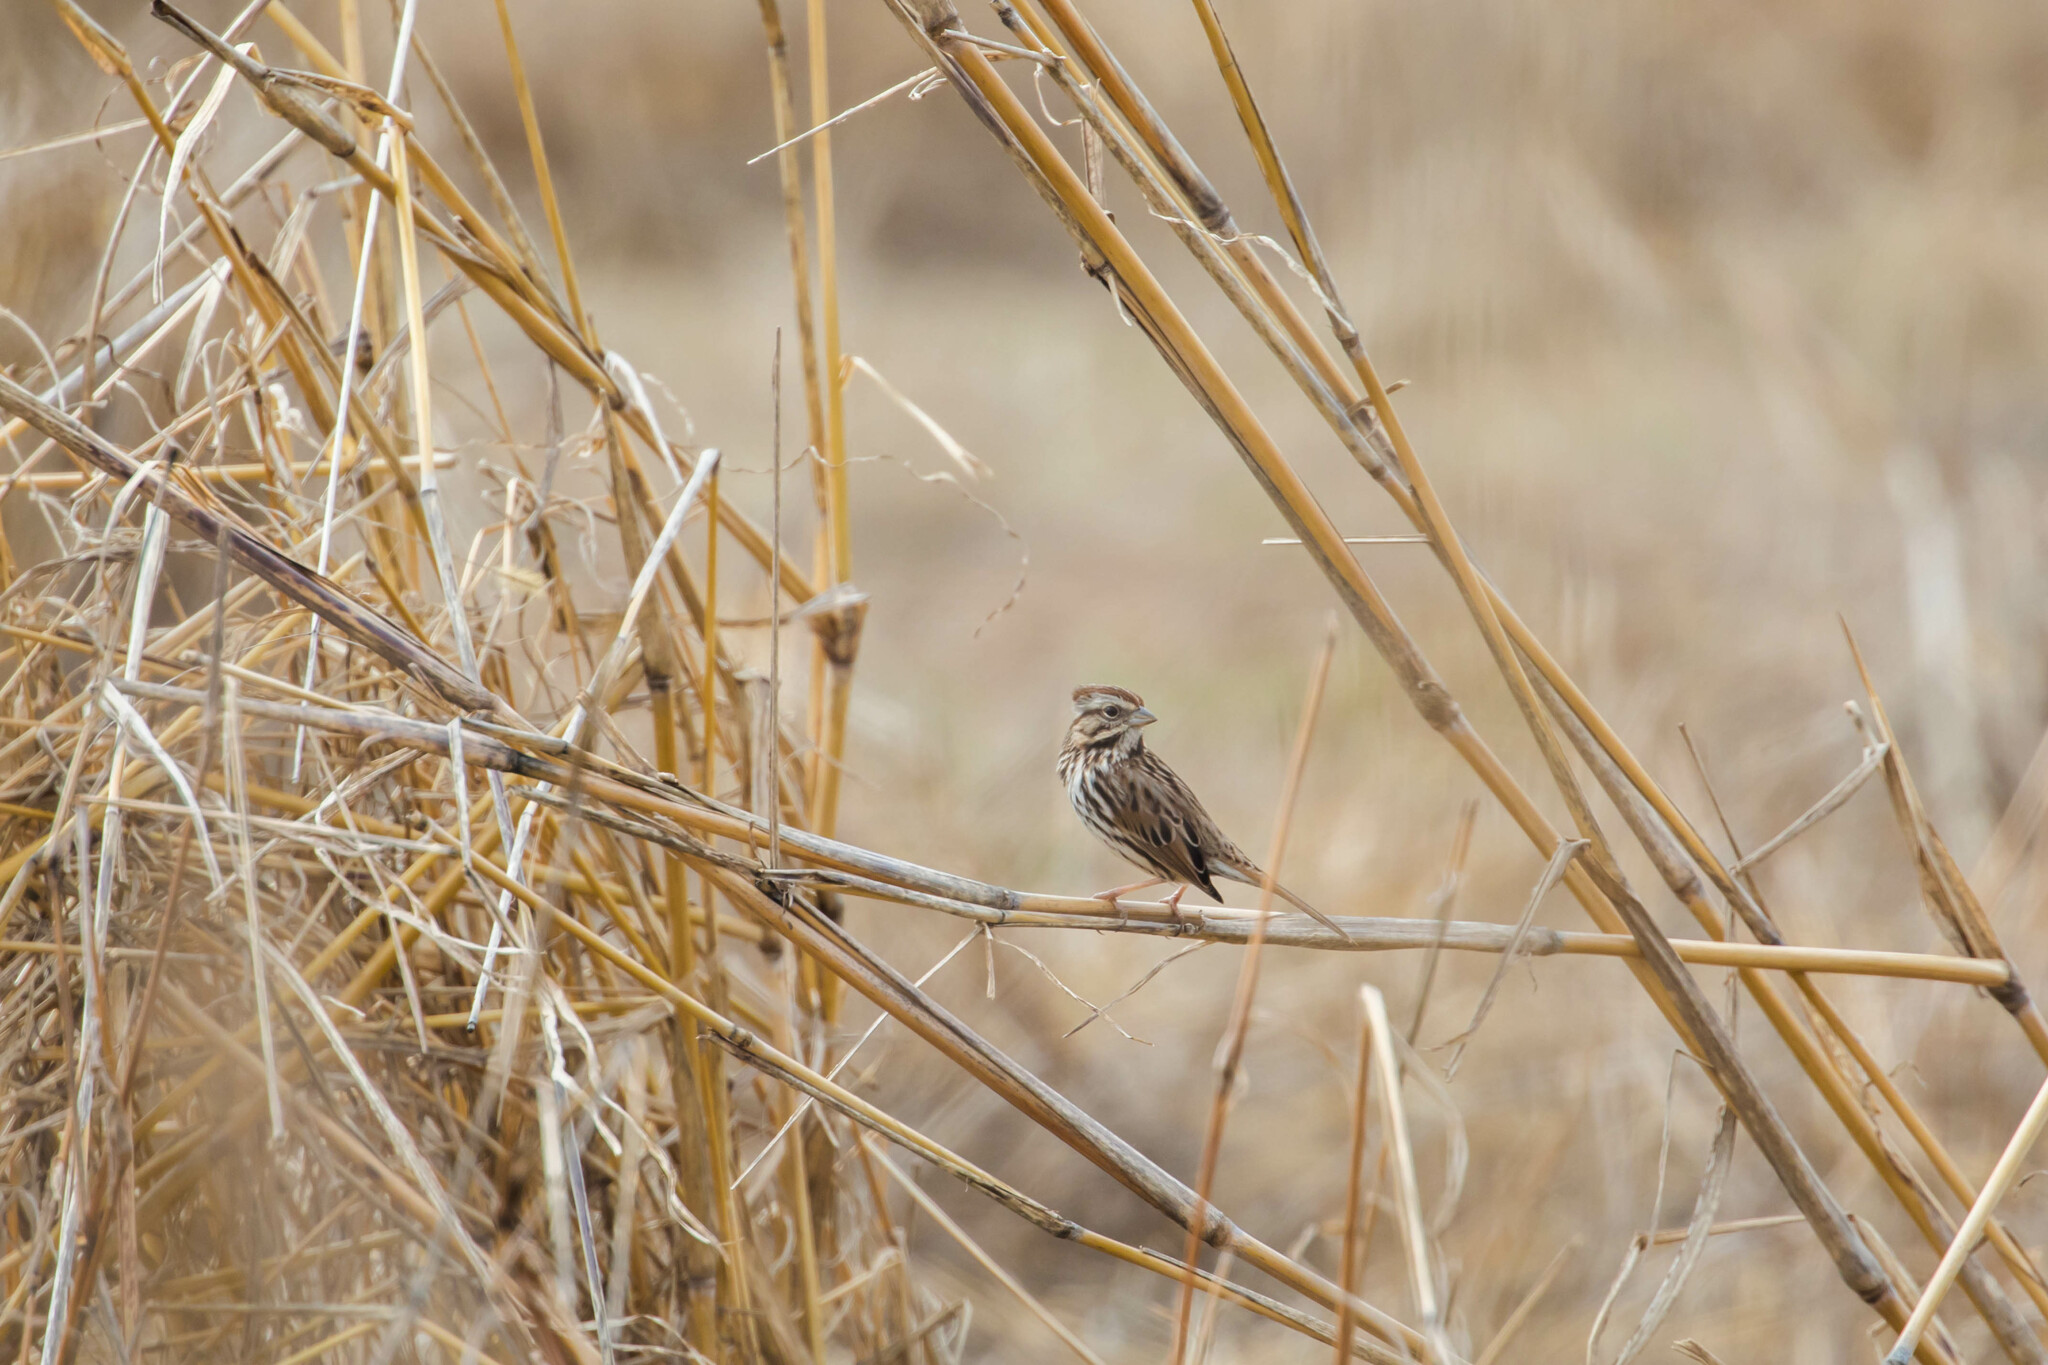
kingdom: Animalia
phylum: Chordata
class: Aves
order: Passeriformes
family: Passerellidae
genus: Melospiza
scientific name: Melospiza melodia
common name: Song sparrow
